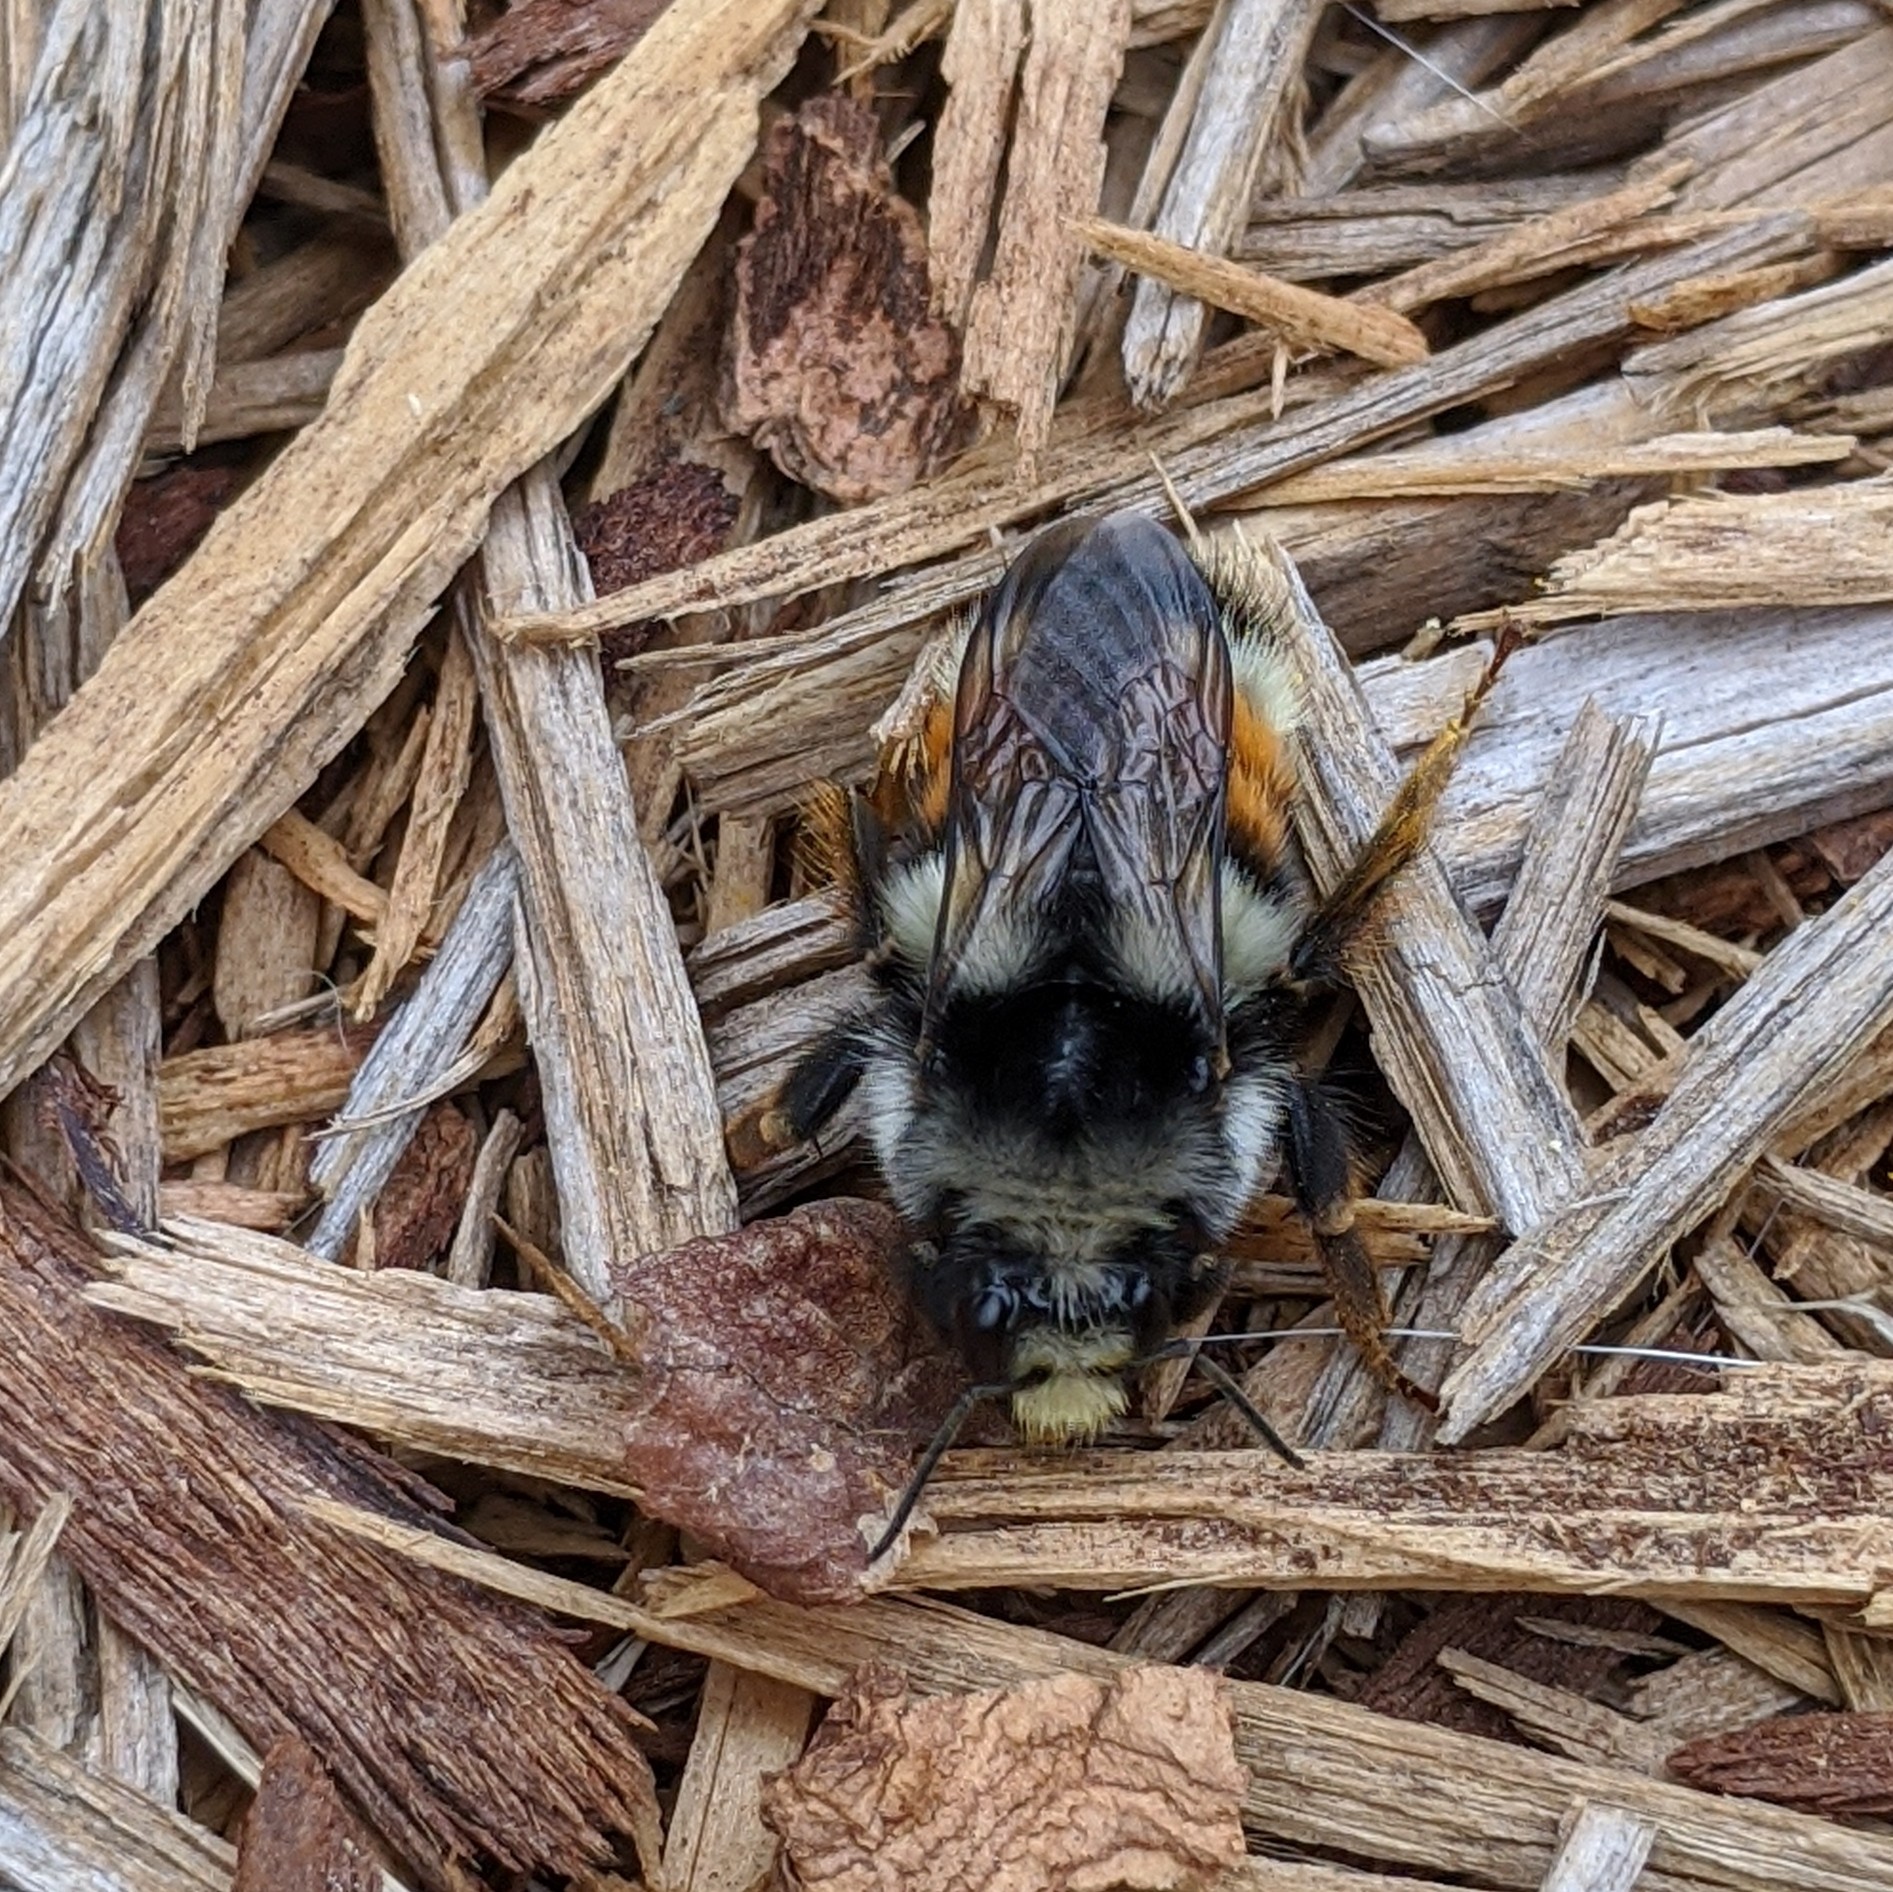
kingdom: Animalia
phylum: Arthropoda
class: Insecta
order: Hymenoptera
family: Apidae
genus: Bombus
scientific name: Bombus vancouverensis
